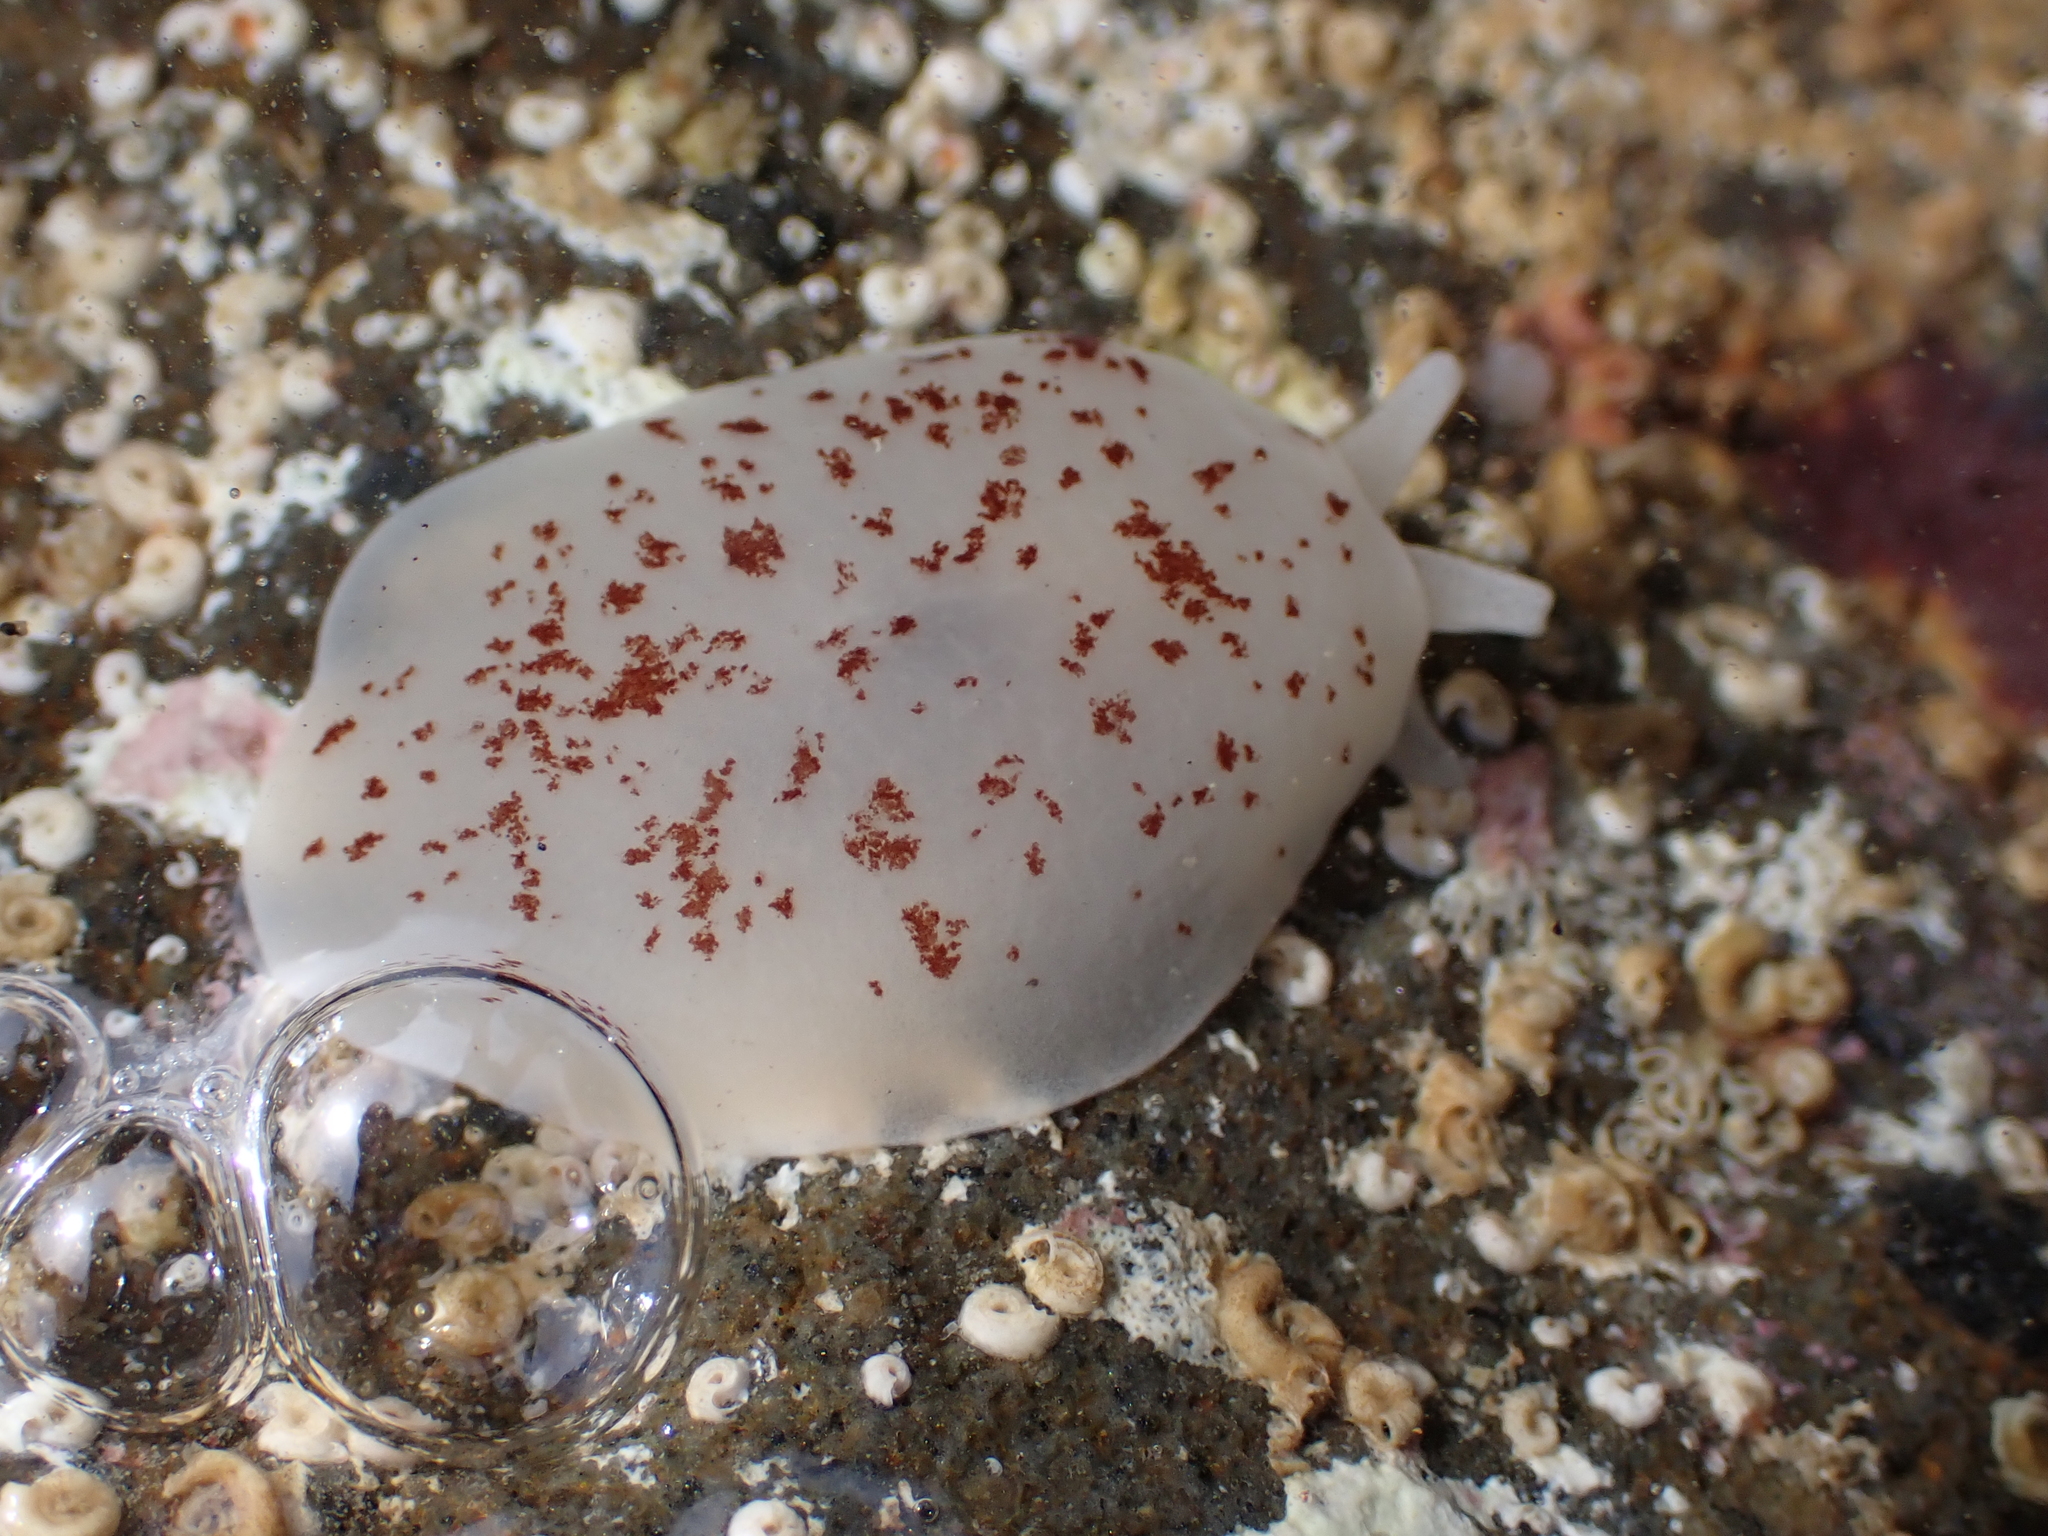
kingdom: Animalia
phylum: Mollusca
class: Gastropoda
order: Pleurobranchida
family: Pleurobranchidae
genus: Berthella
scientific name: Berthella ornata
